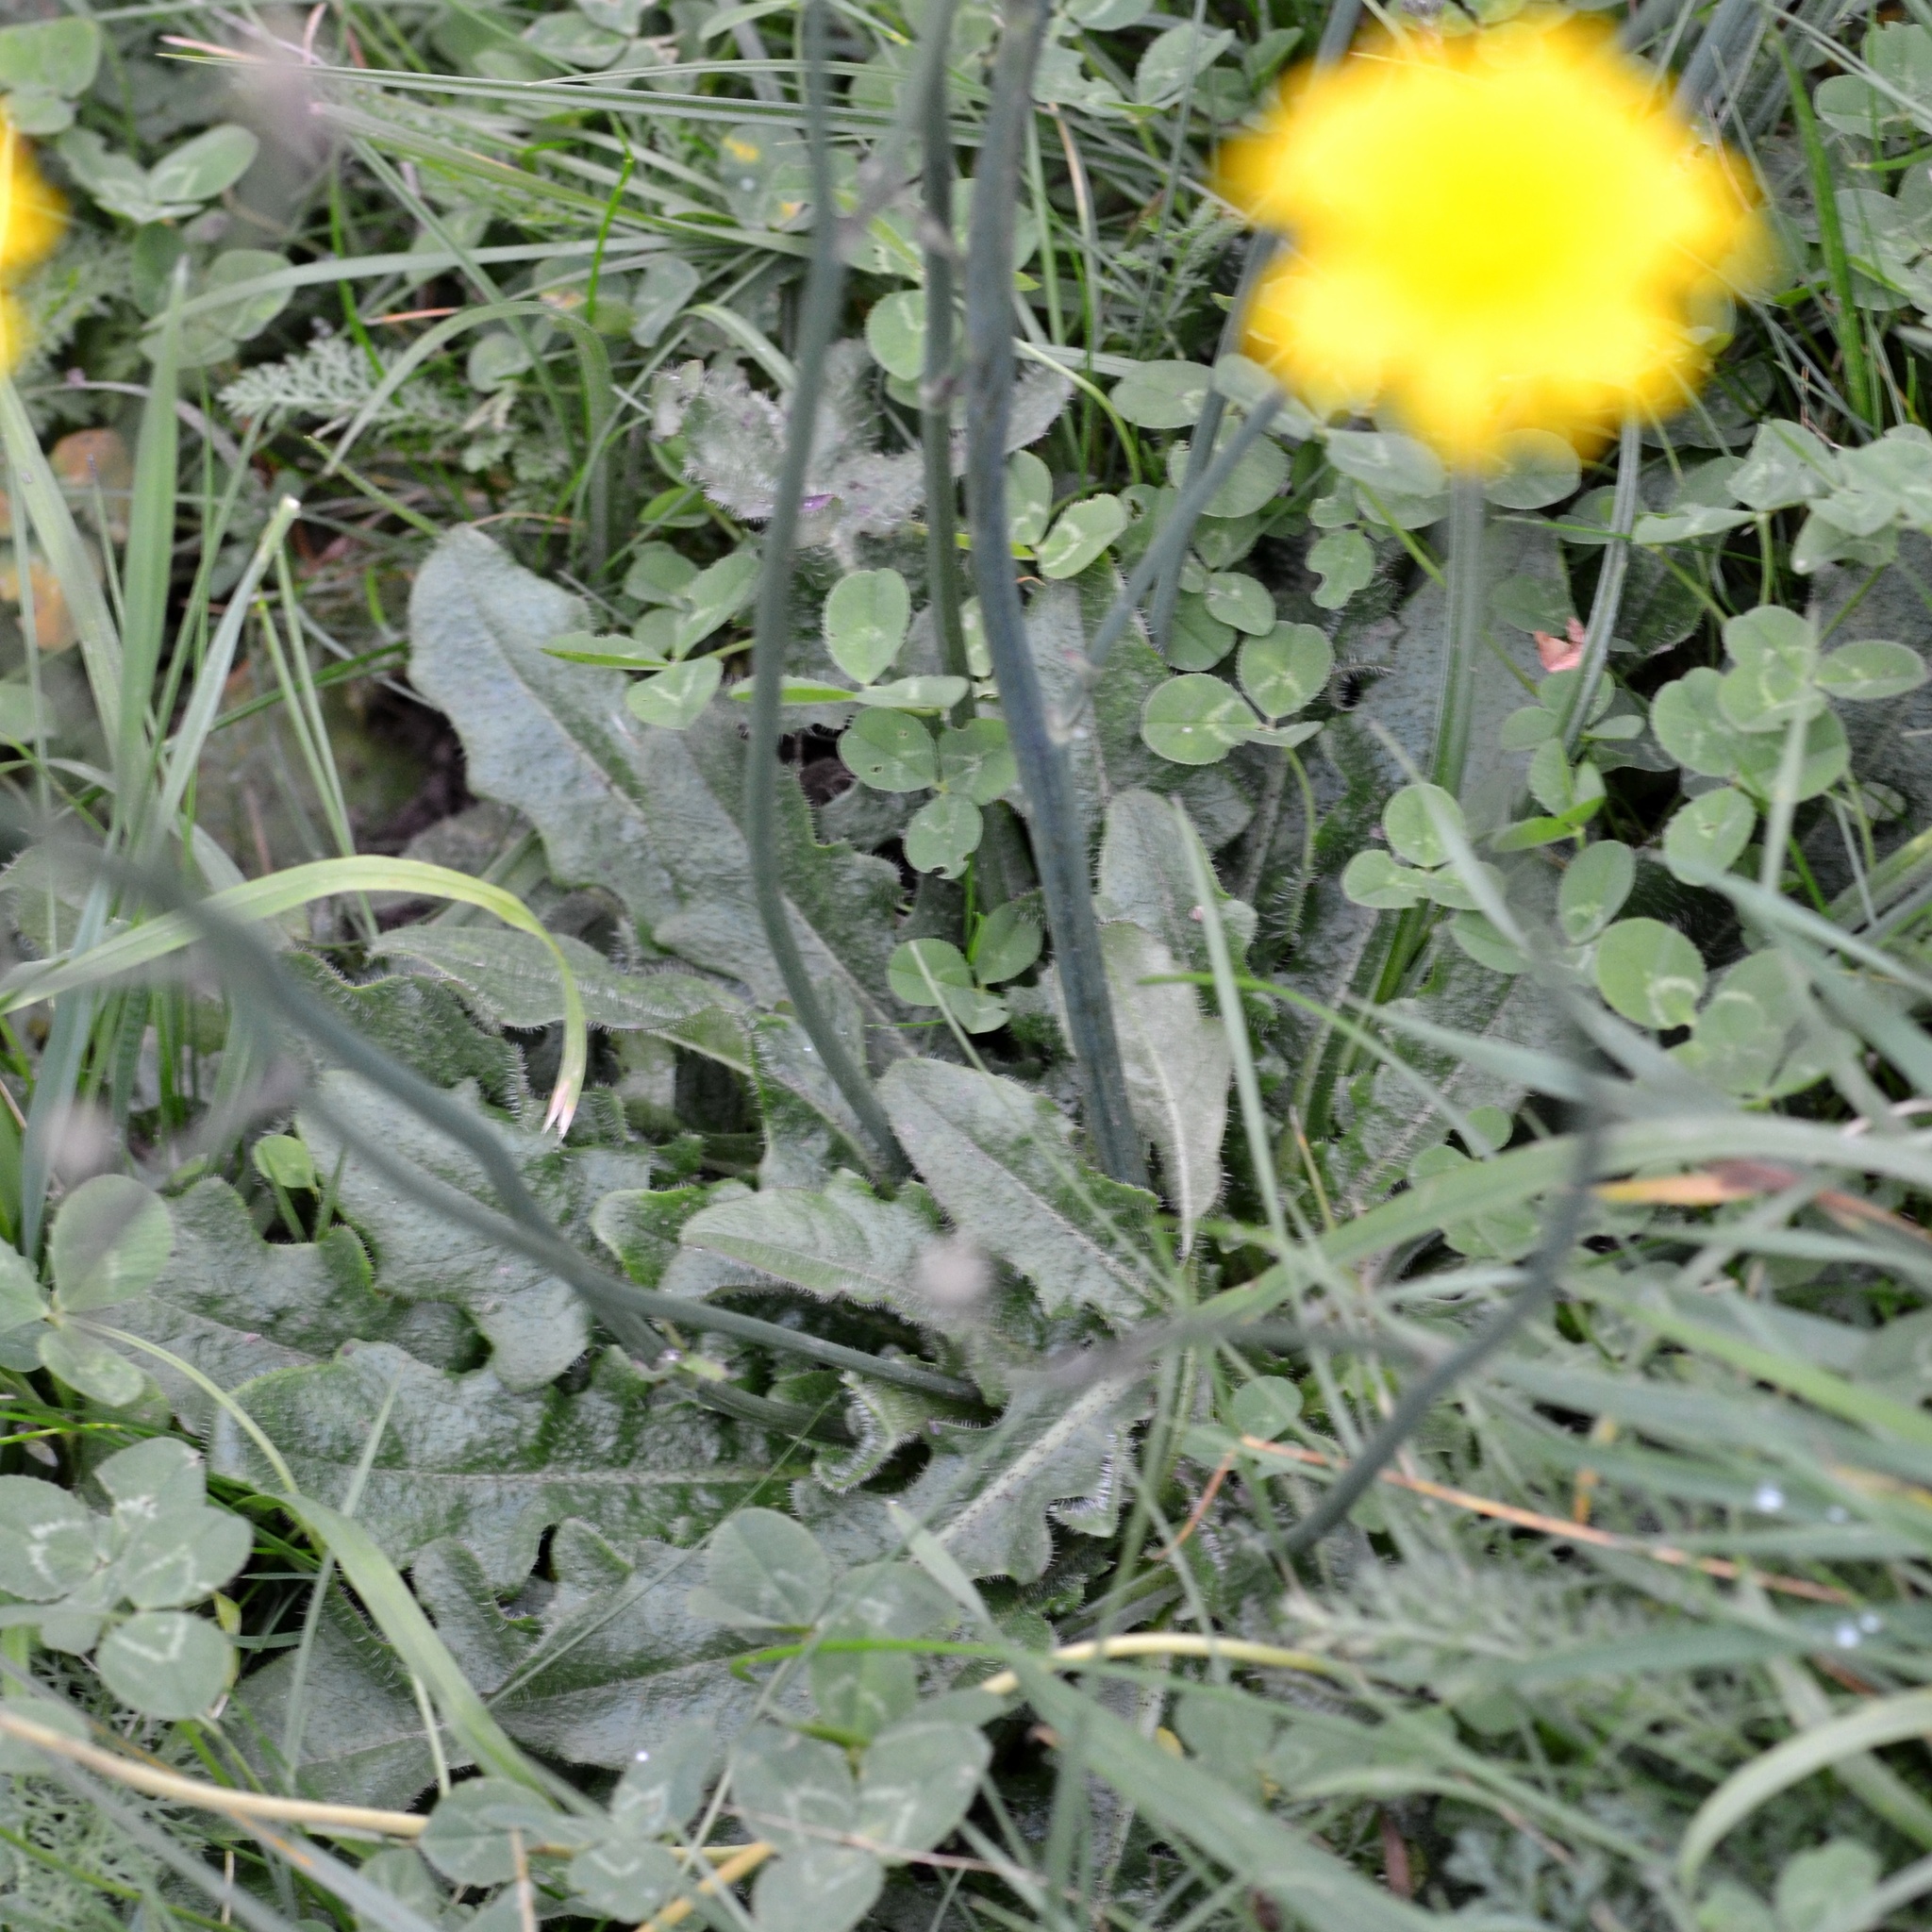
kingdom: Plantae
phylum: Tracheophyta
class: Magnoliopsida
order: Asterales
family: Asteraceae
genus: Hypochaeris
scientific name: Hypochaeris radicata
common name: Flatweed
